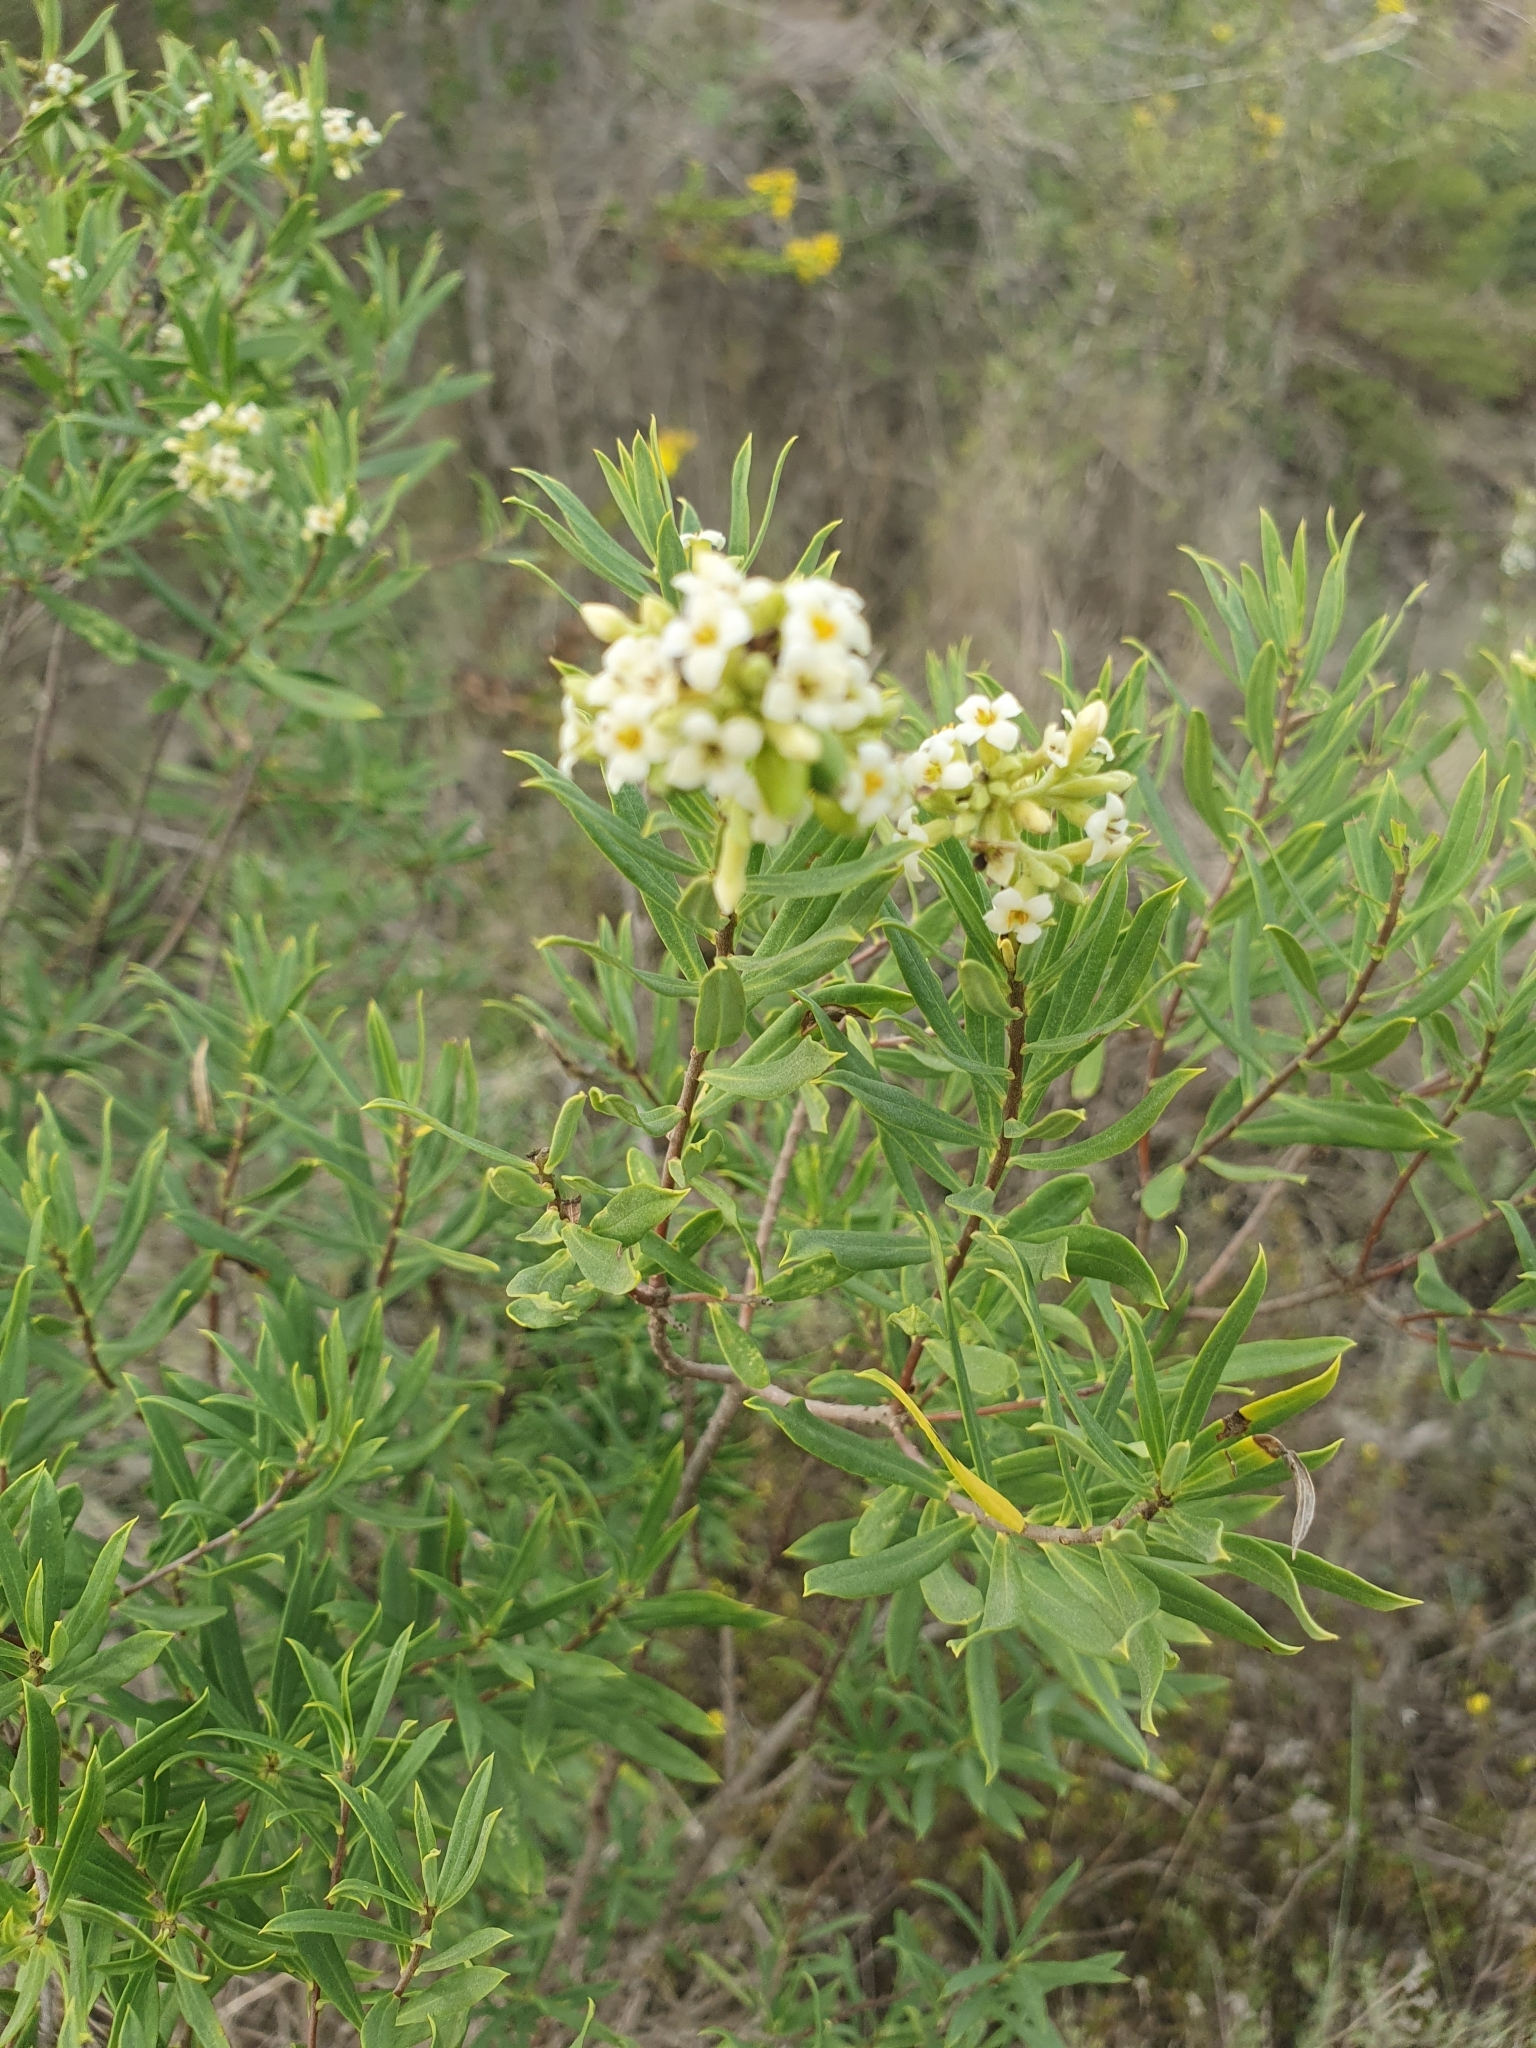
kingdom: Plantae
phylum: Tracheophyta
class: Magnoliopsida
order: Malvales
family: Thymelaeaceae
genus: Daphne
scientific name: Daphne gnidium
